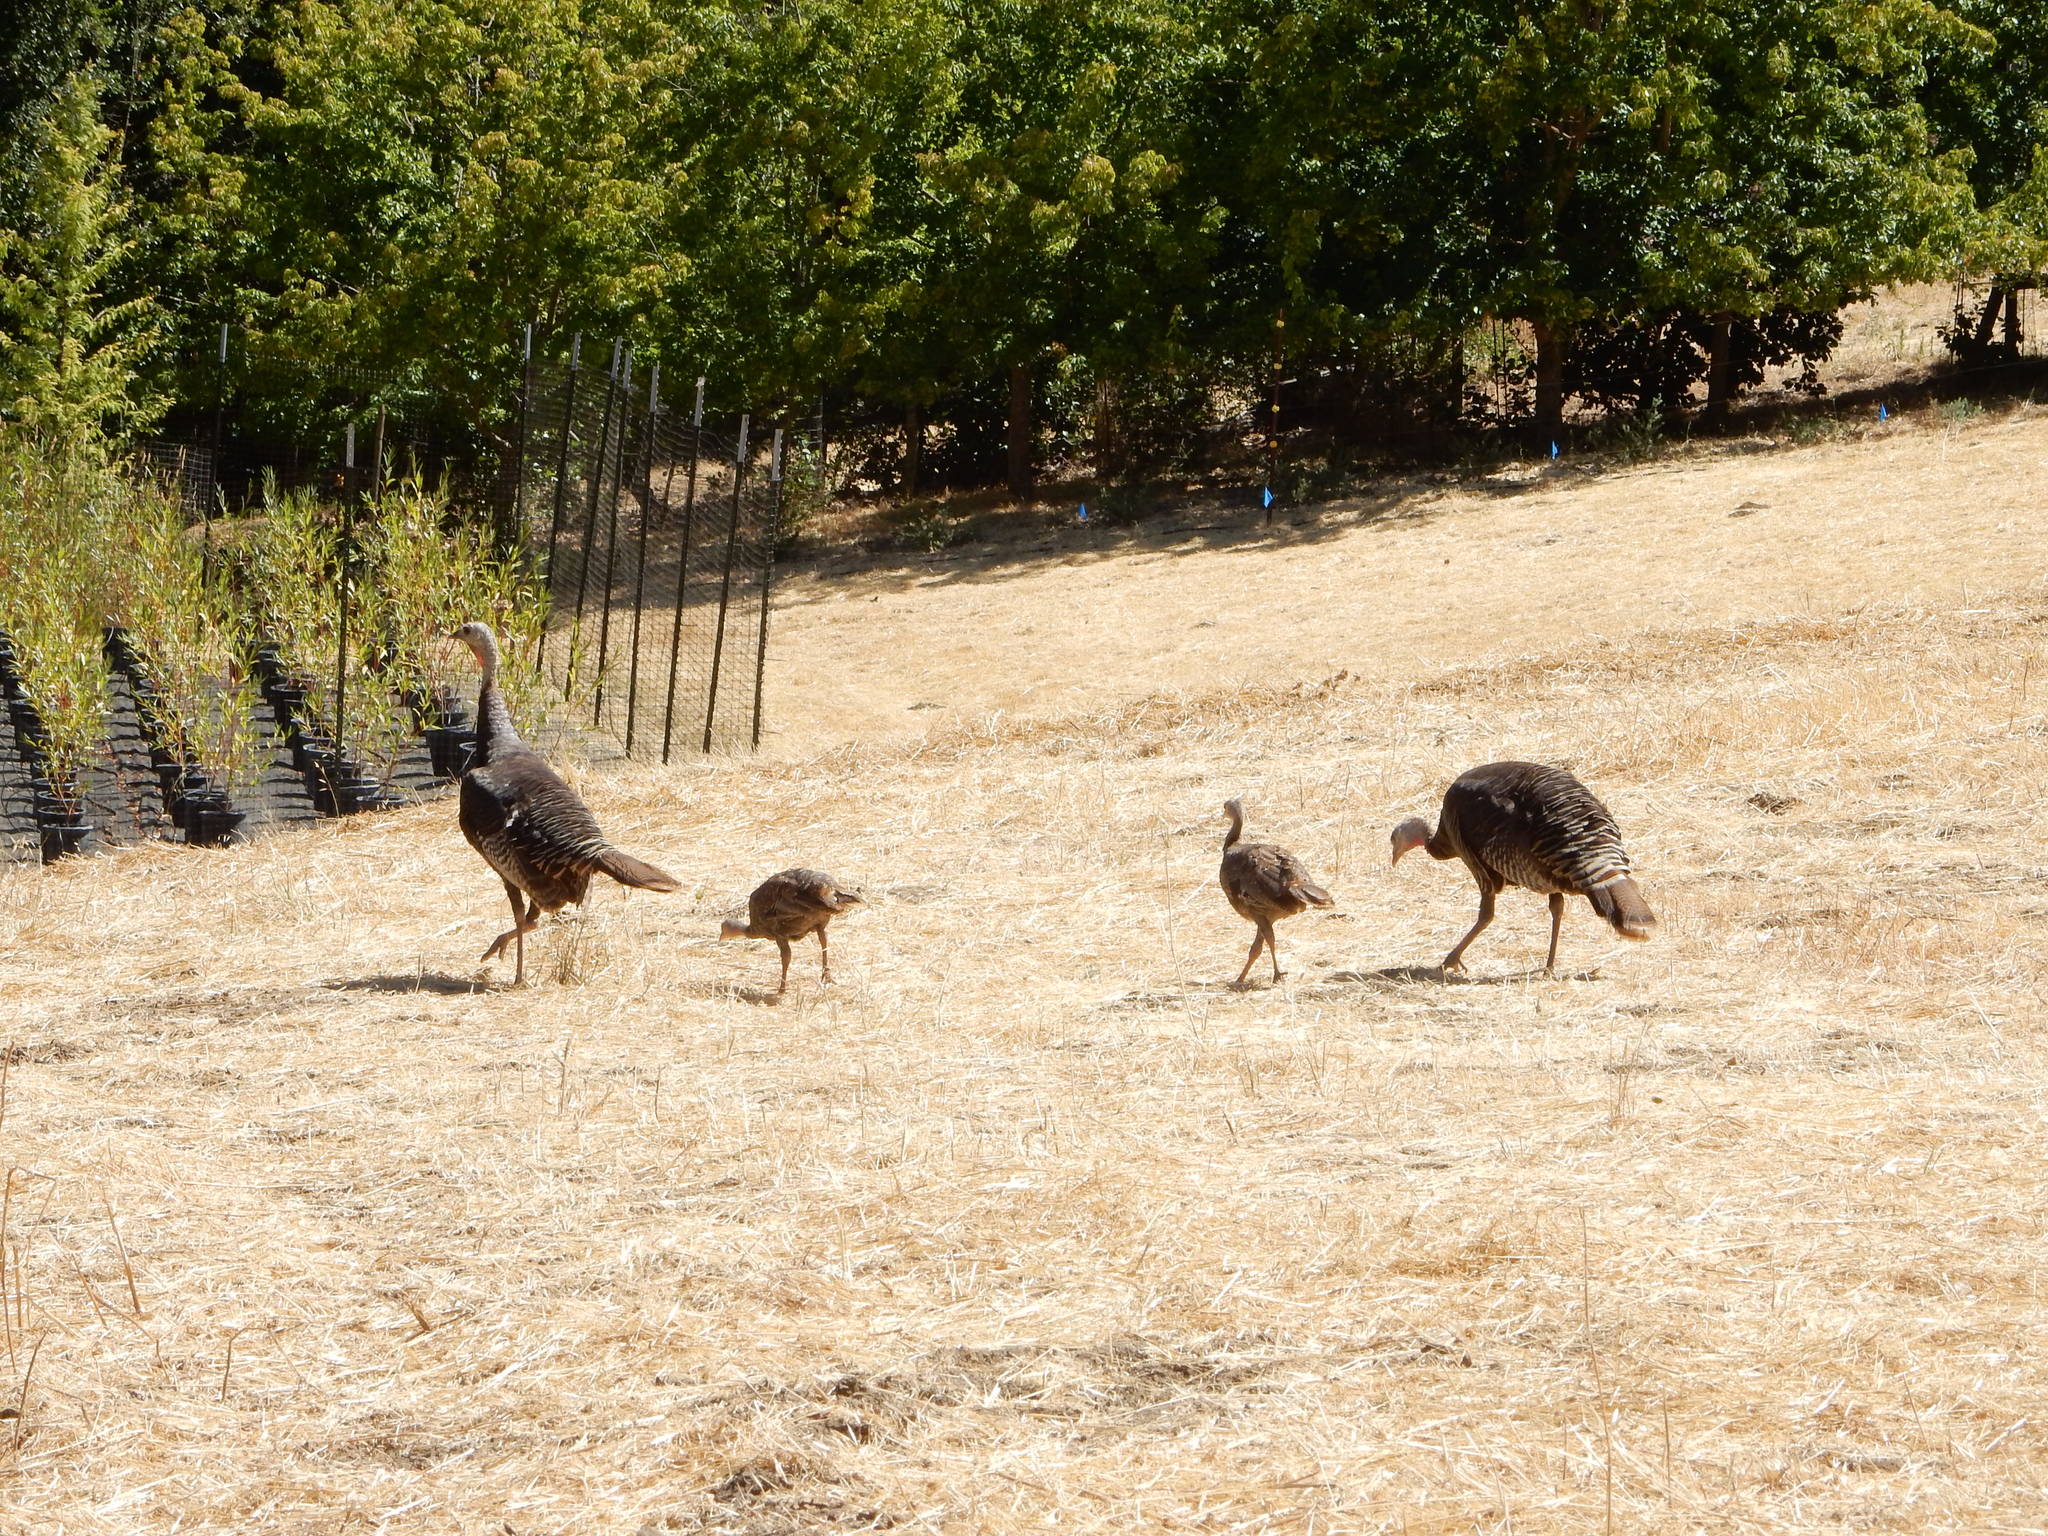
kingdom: Animalia
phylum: Chordata
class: Aves
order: Galliformes
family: Phasianidae
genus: Meleagris
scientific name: Meleagris gallopavo
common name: Wild turkey
